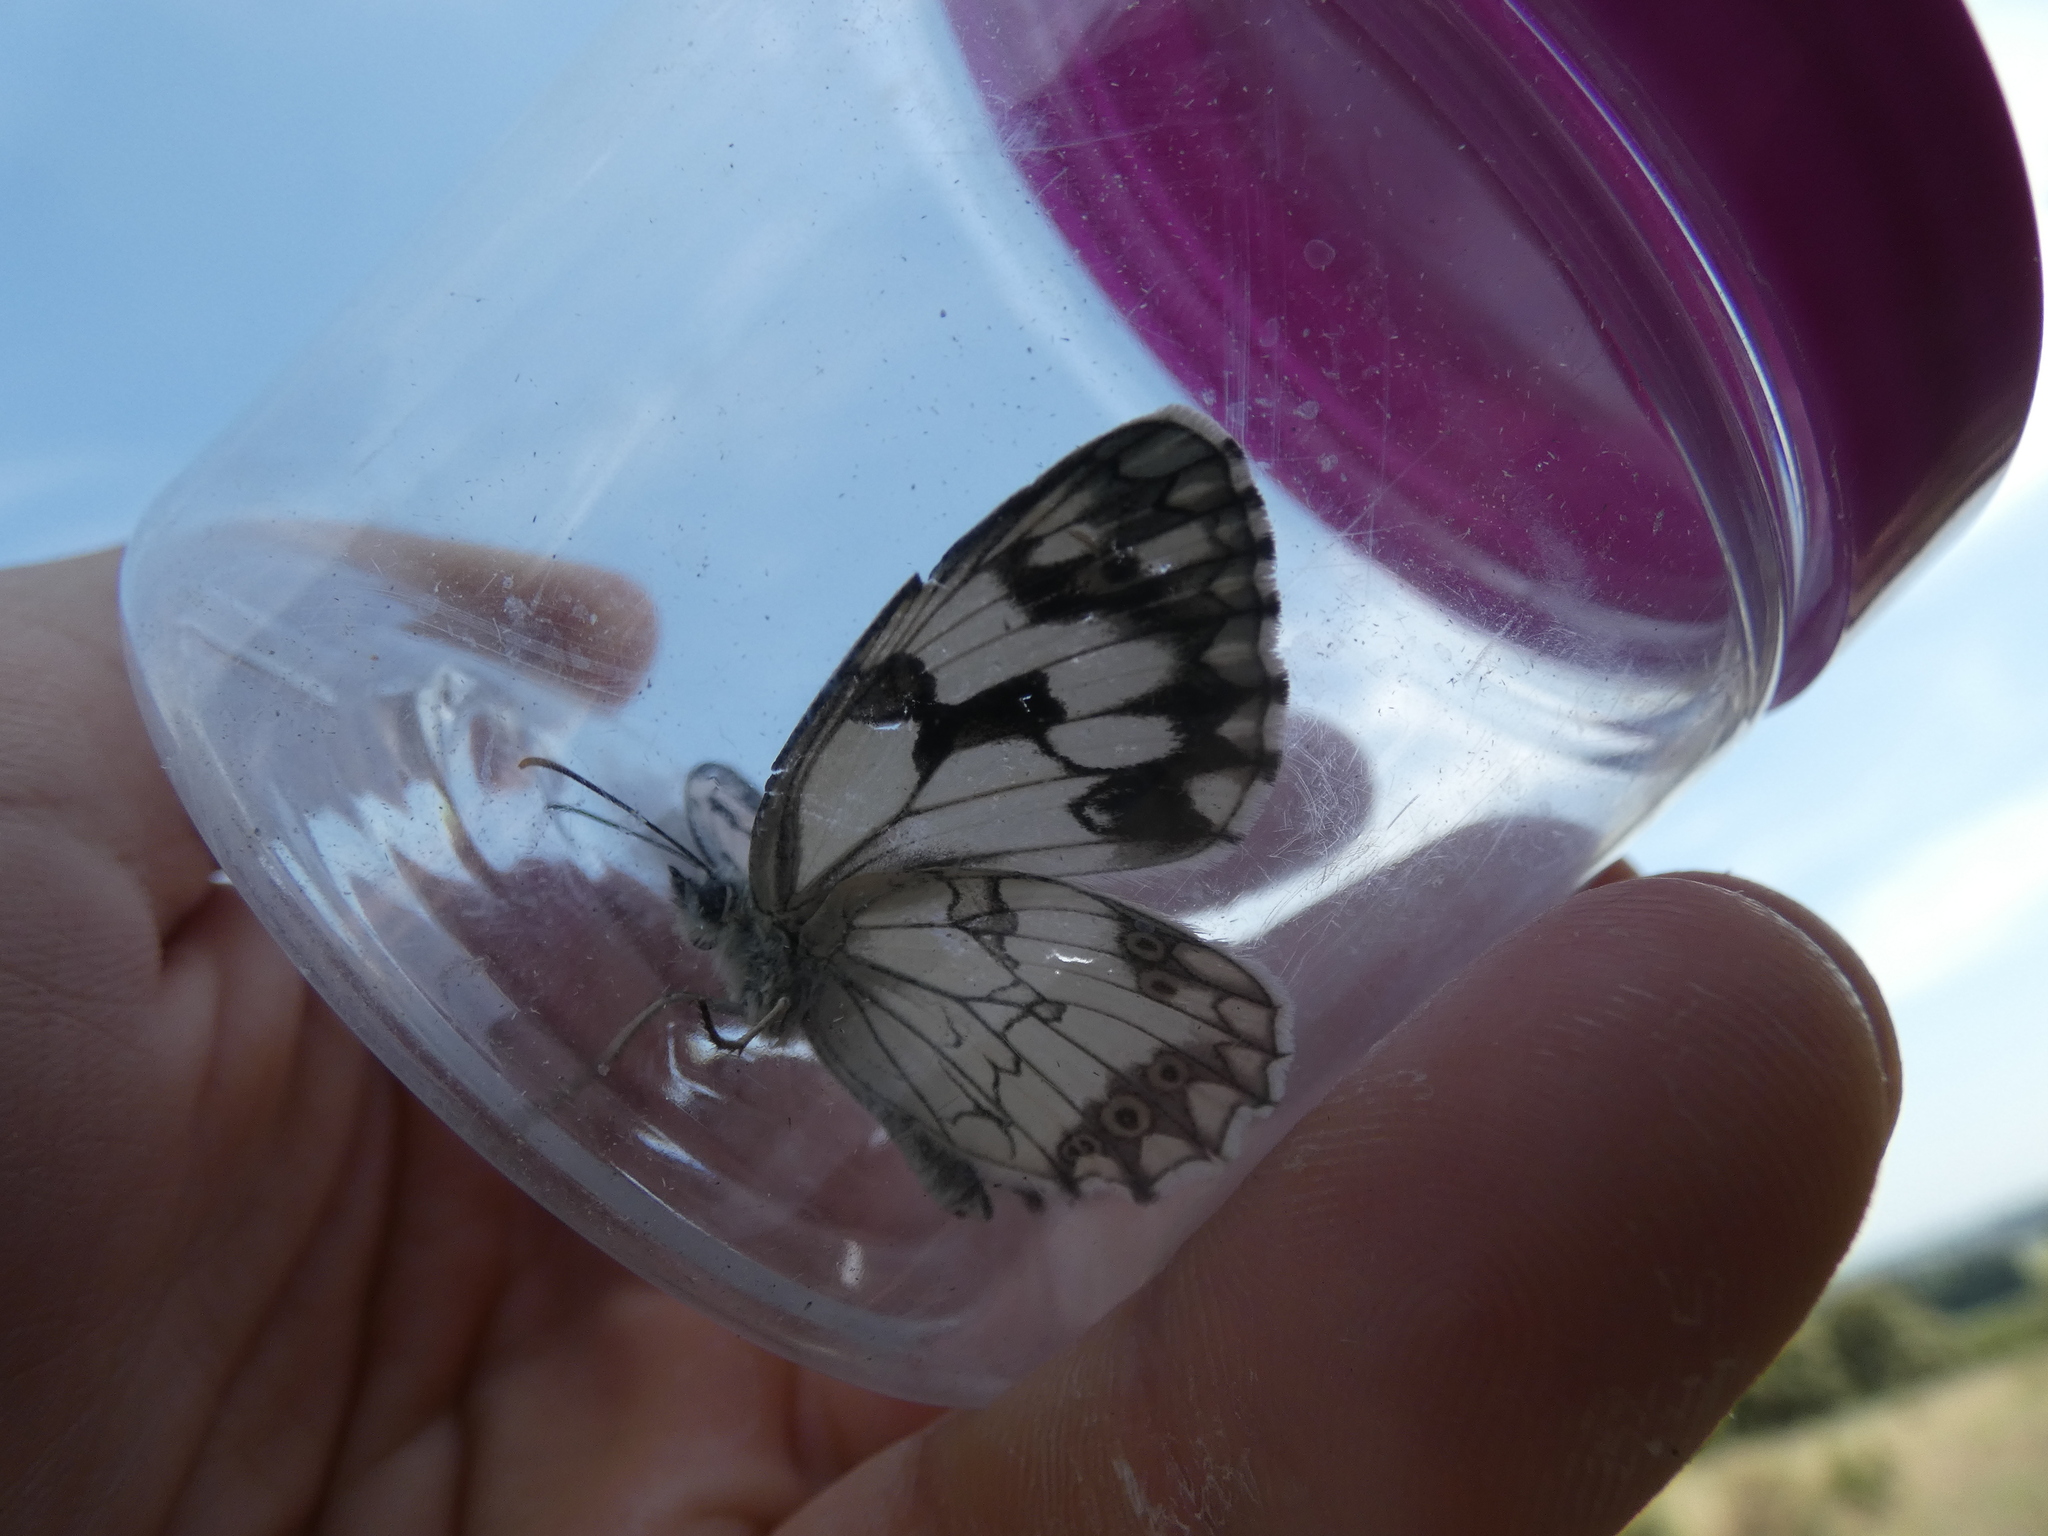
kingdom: Animalia
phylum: Arthropoda
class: Insecta
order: Lepidoptera
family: Nymphalidae
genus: Melanargia
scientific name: Melanargia lachesis
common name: Iberian marbled white
